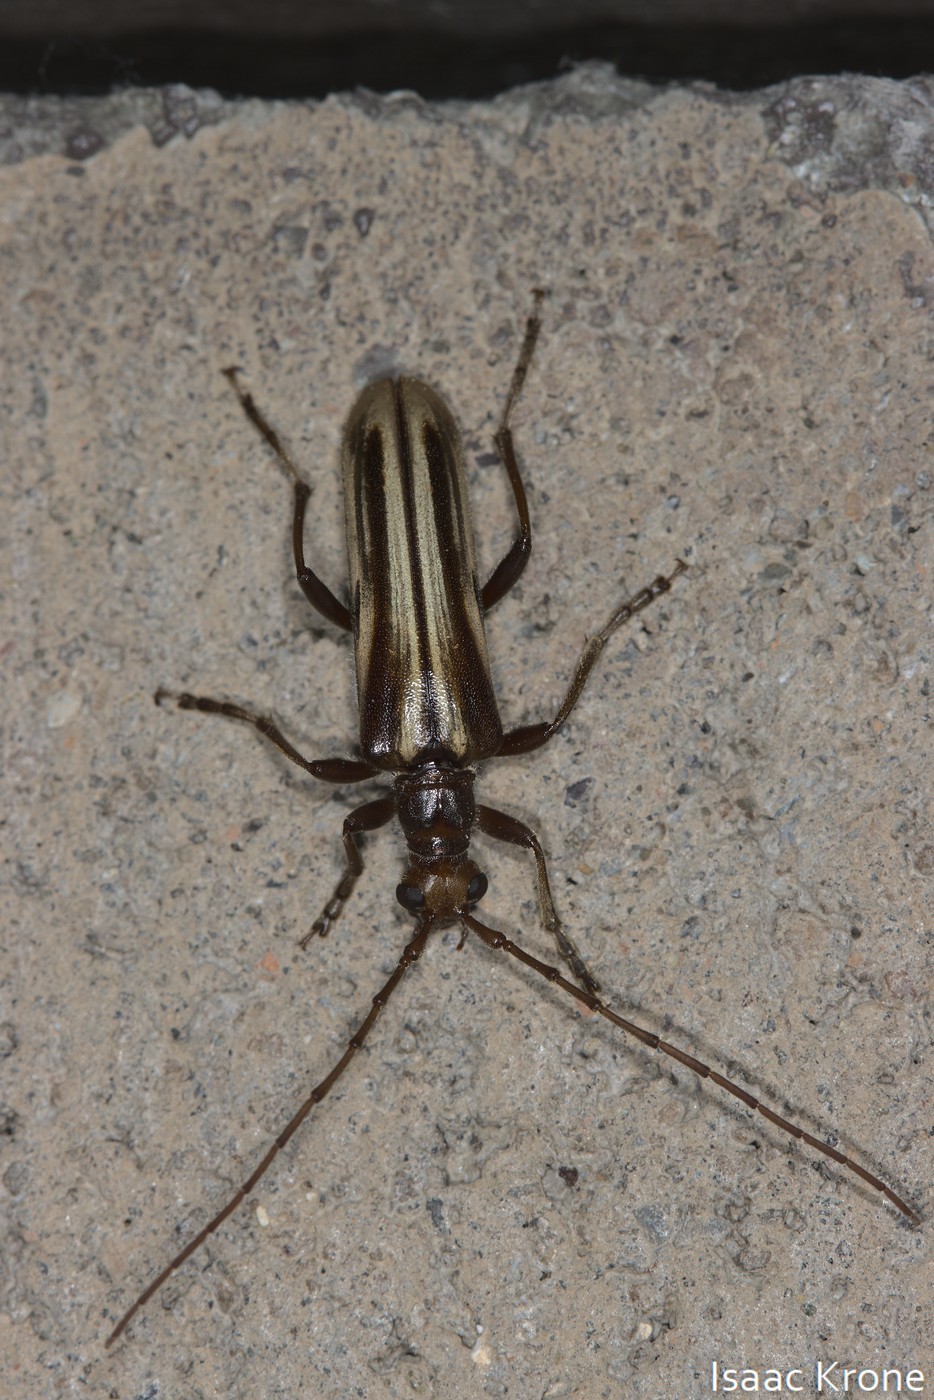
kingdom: Animalia
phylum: Arthropoda
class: Insecta
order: Coleoptera
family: Cerambycidae
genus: Ortholeptura
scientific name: Ortholeptura insignis
